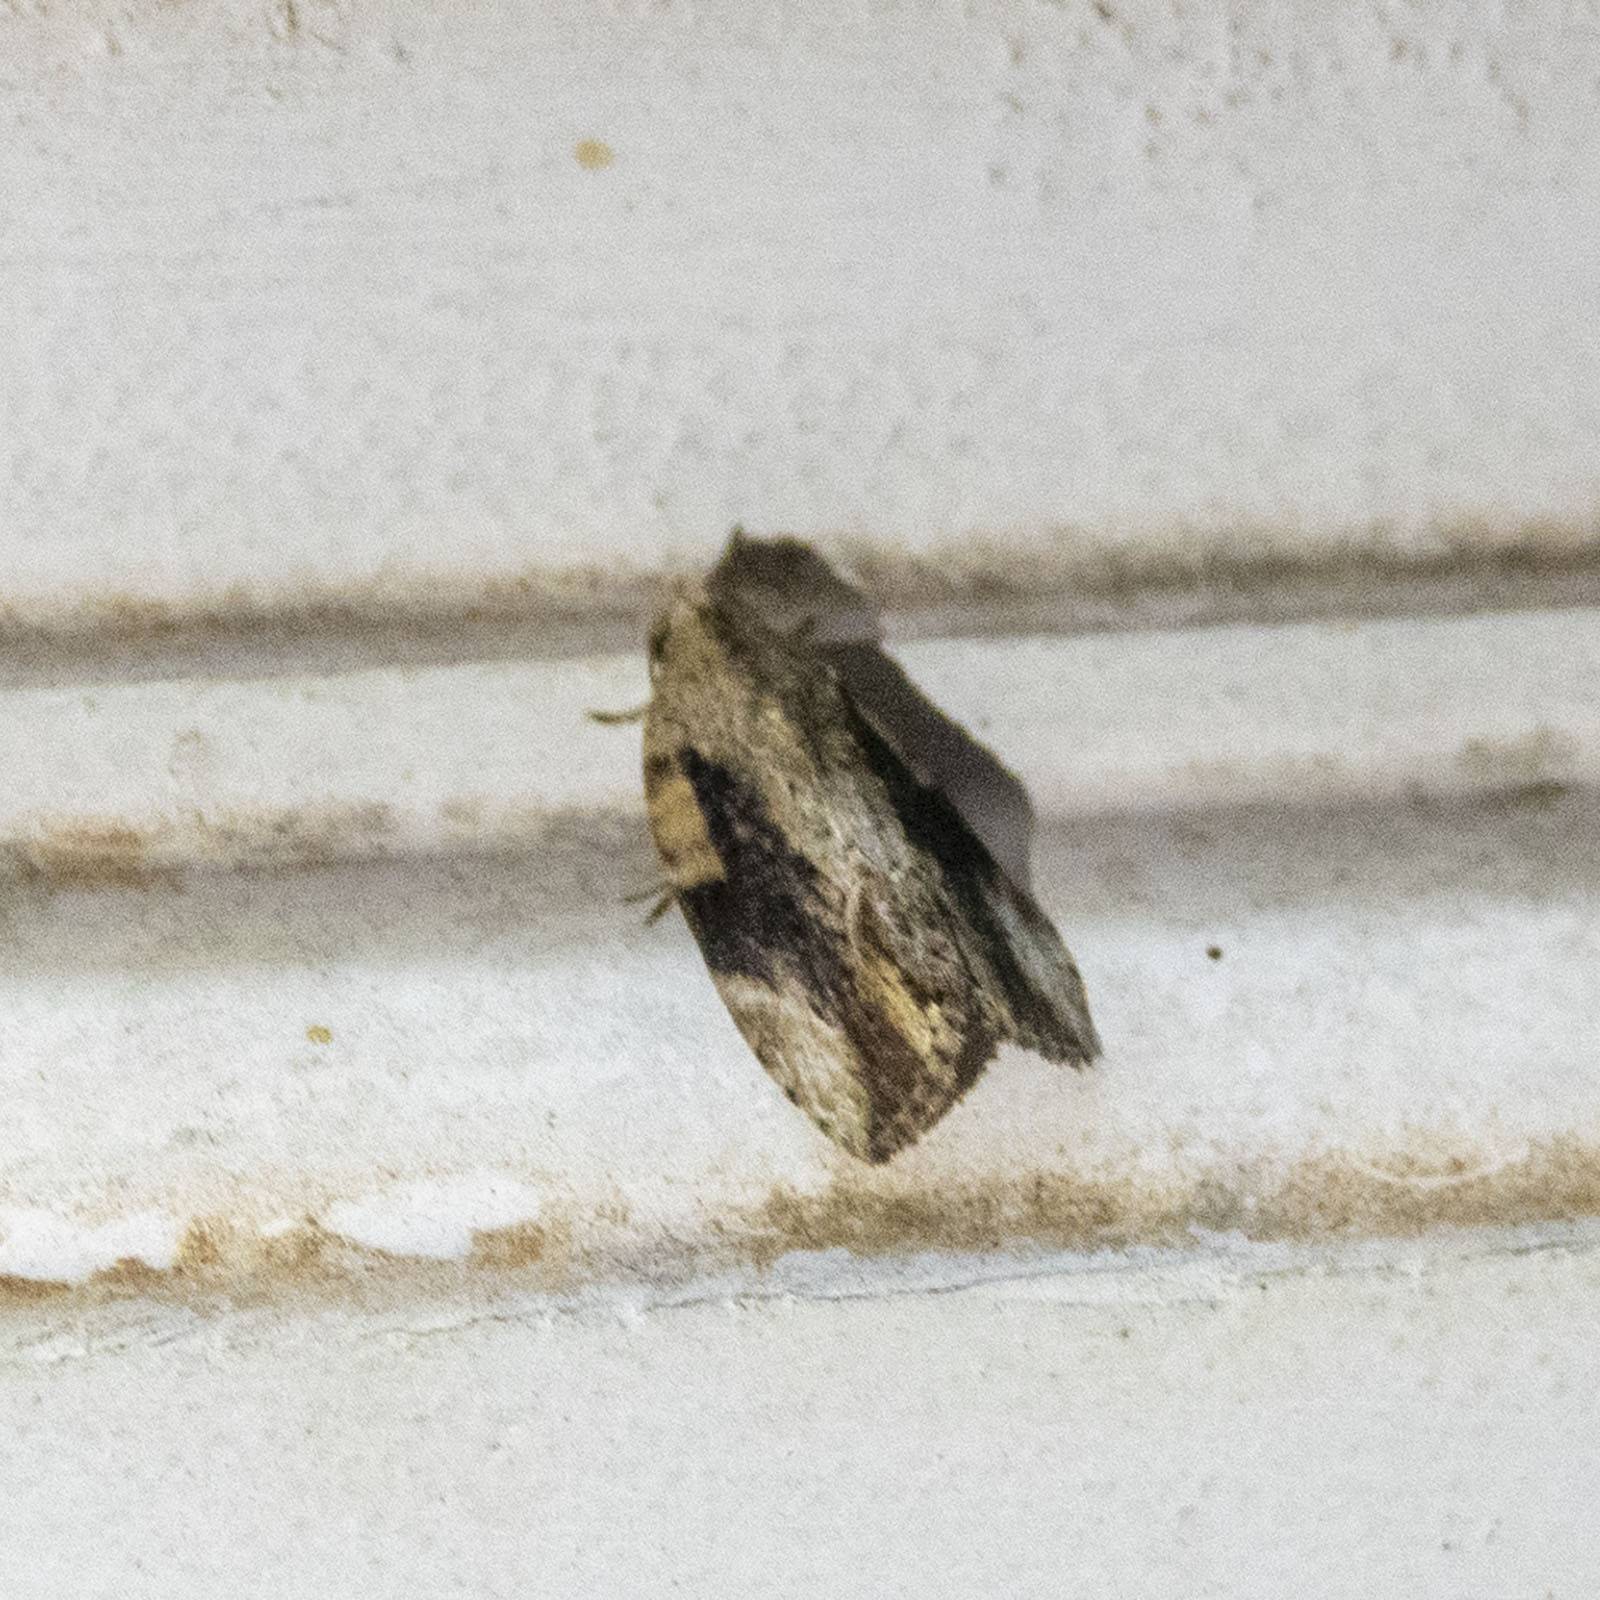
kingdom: Animalia
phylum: Arthropoda
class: Insecta
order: Lepidoptera
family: Nolidae
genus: Etanna
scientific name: Etanna breviuscula
